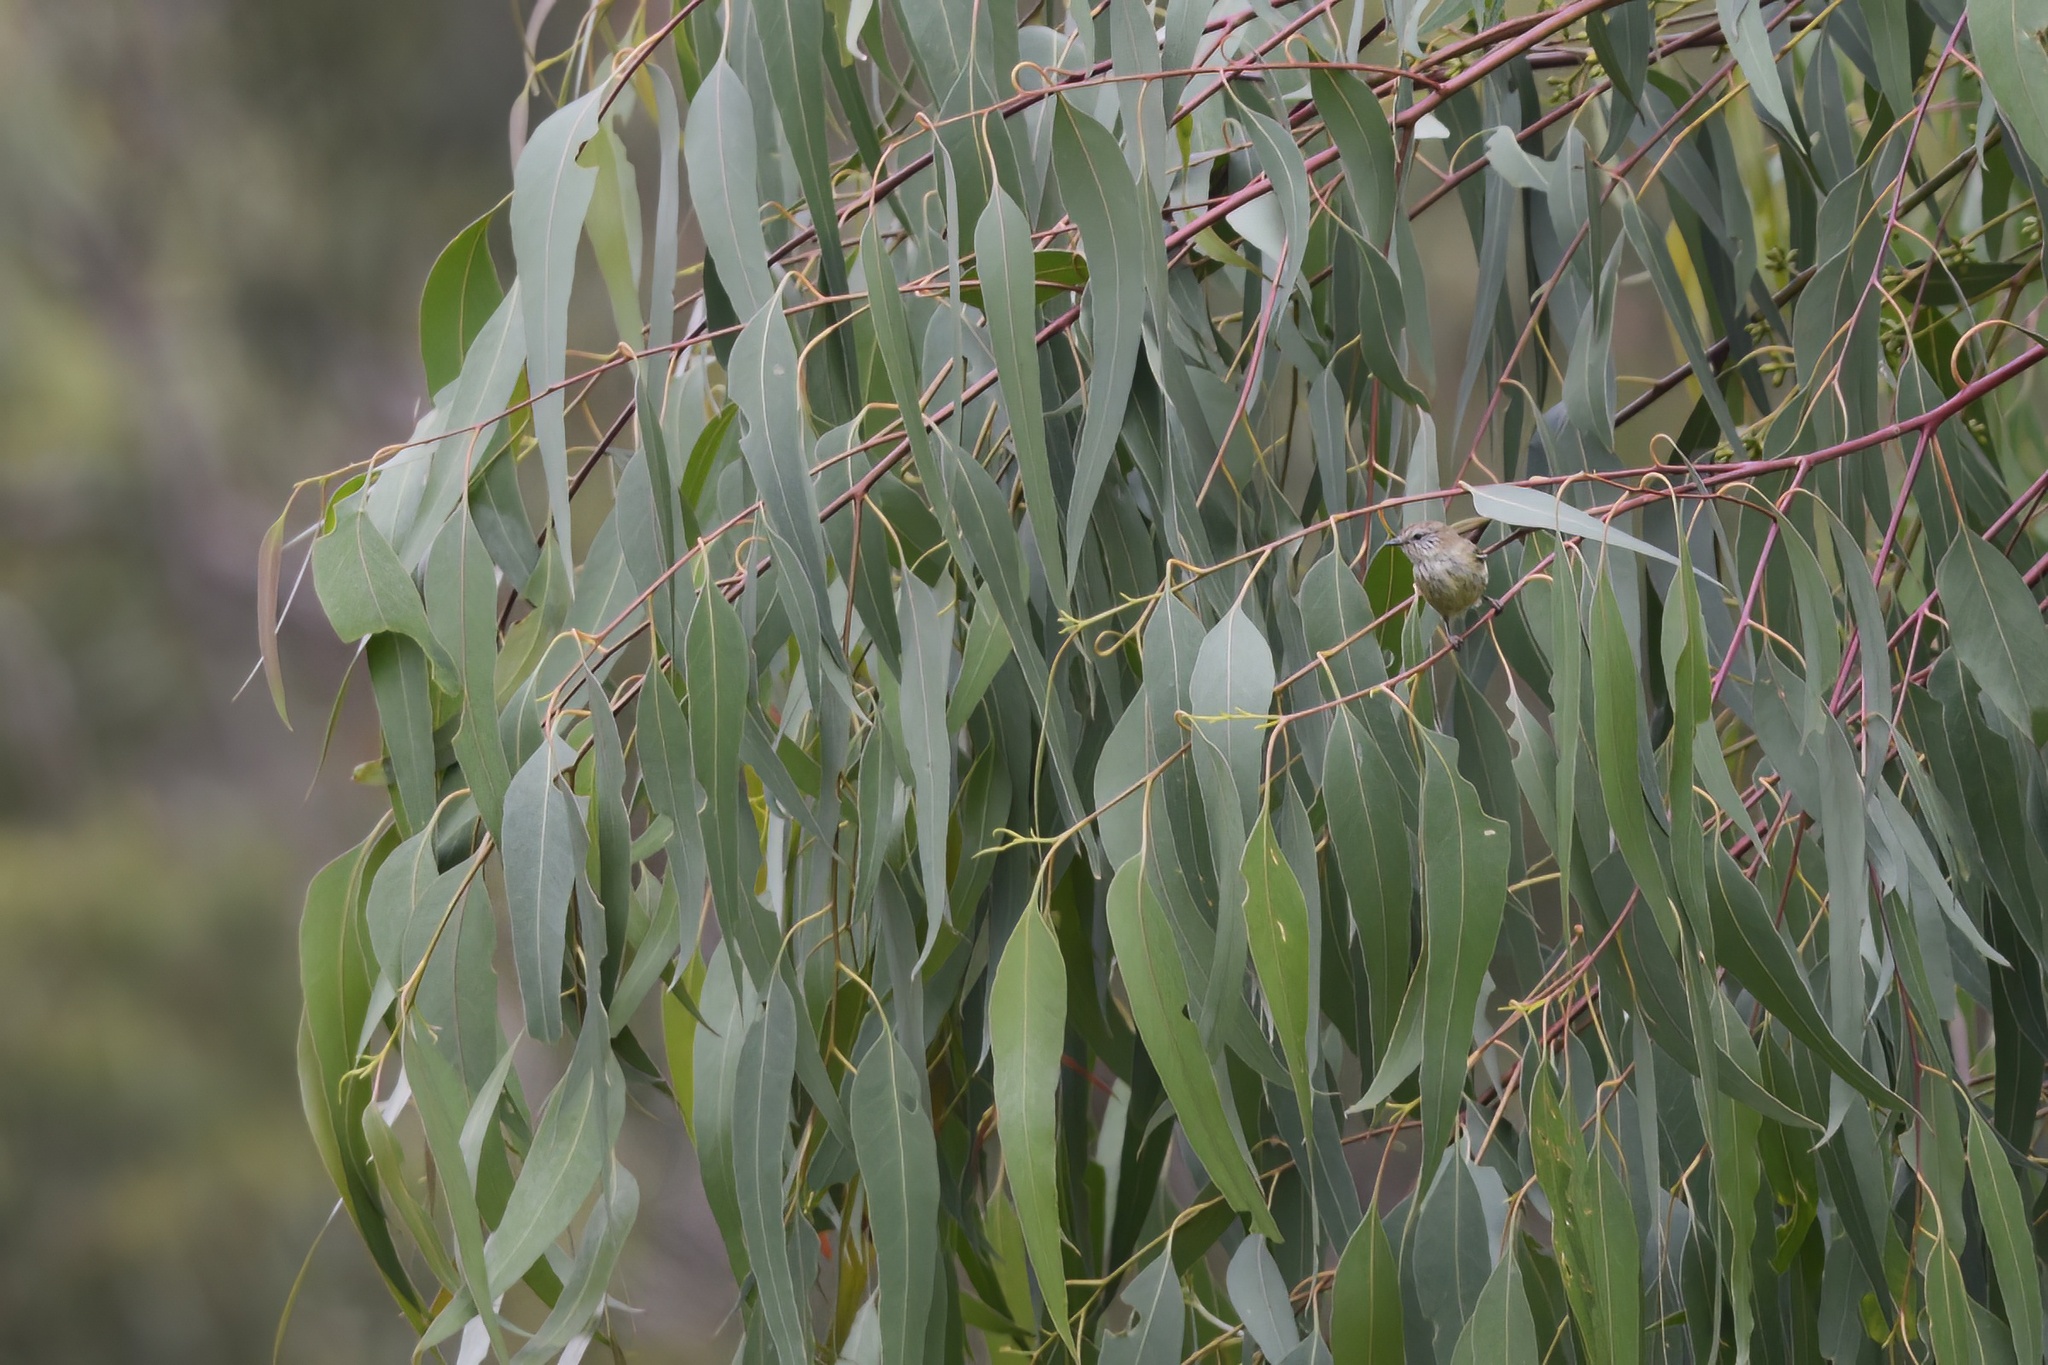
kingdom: Animalia
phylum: Chordata
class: Aves
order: Passeriformes
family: Acanthizidae
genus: Acanthiza
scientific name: Acanthiza lineata
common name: Striated thornbill
